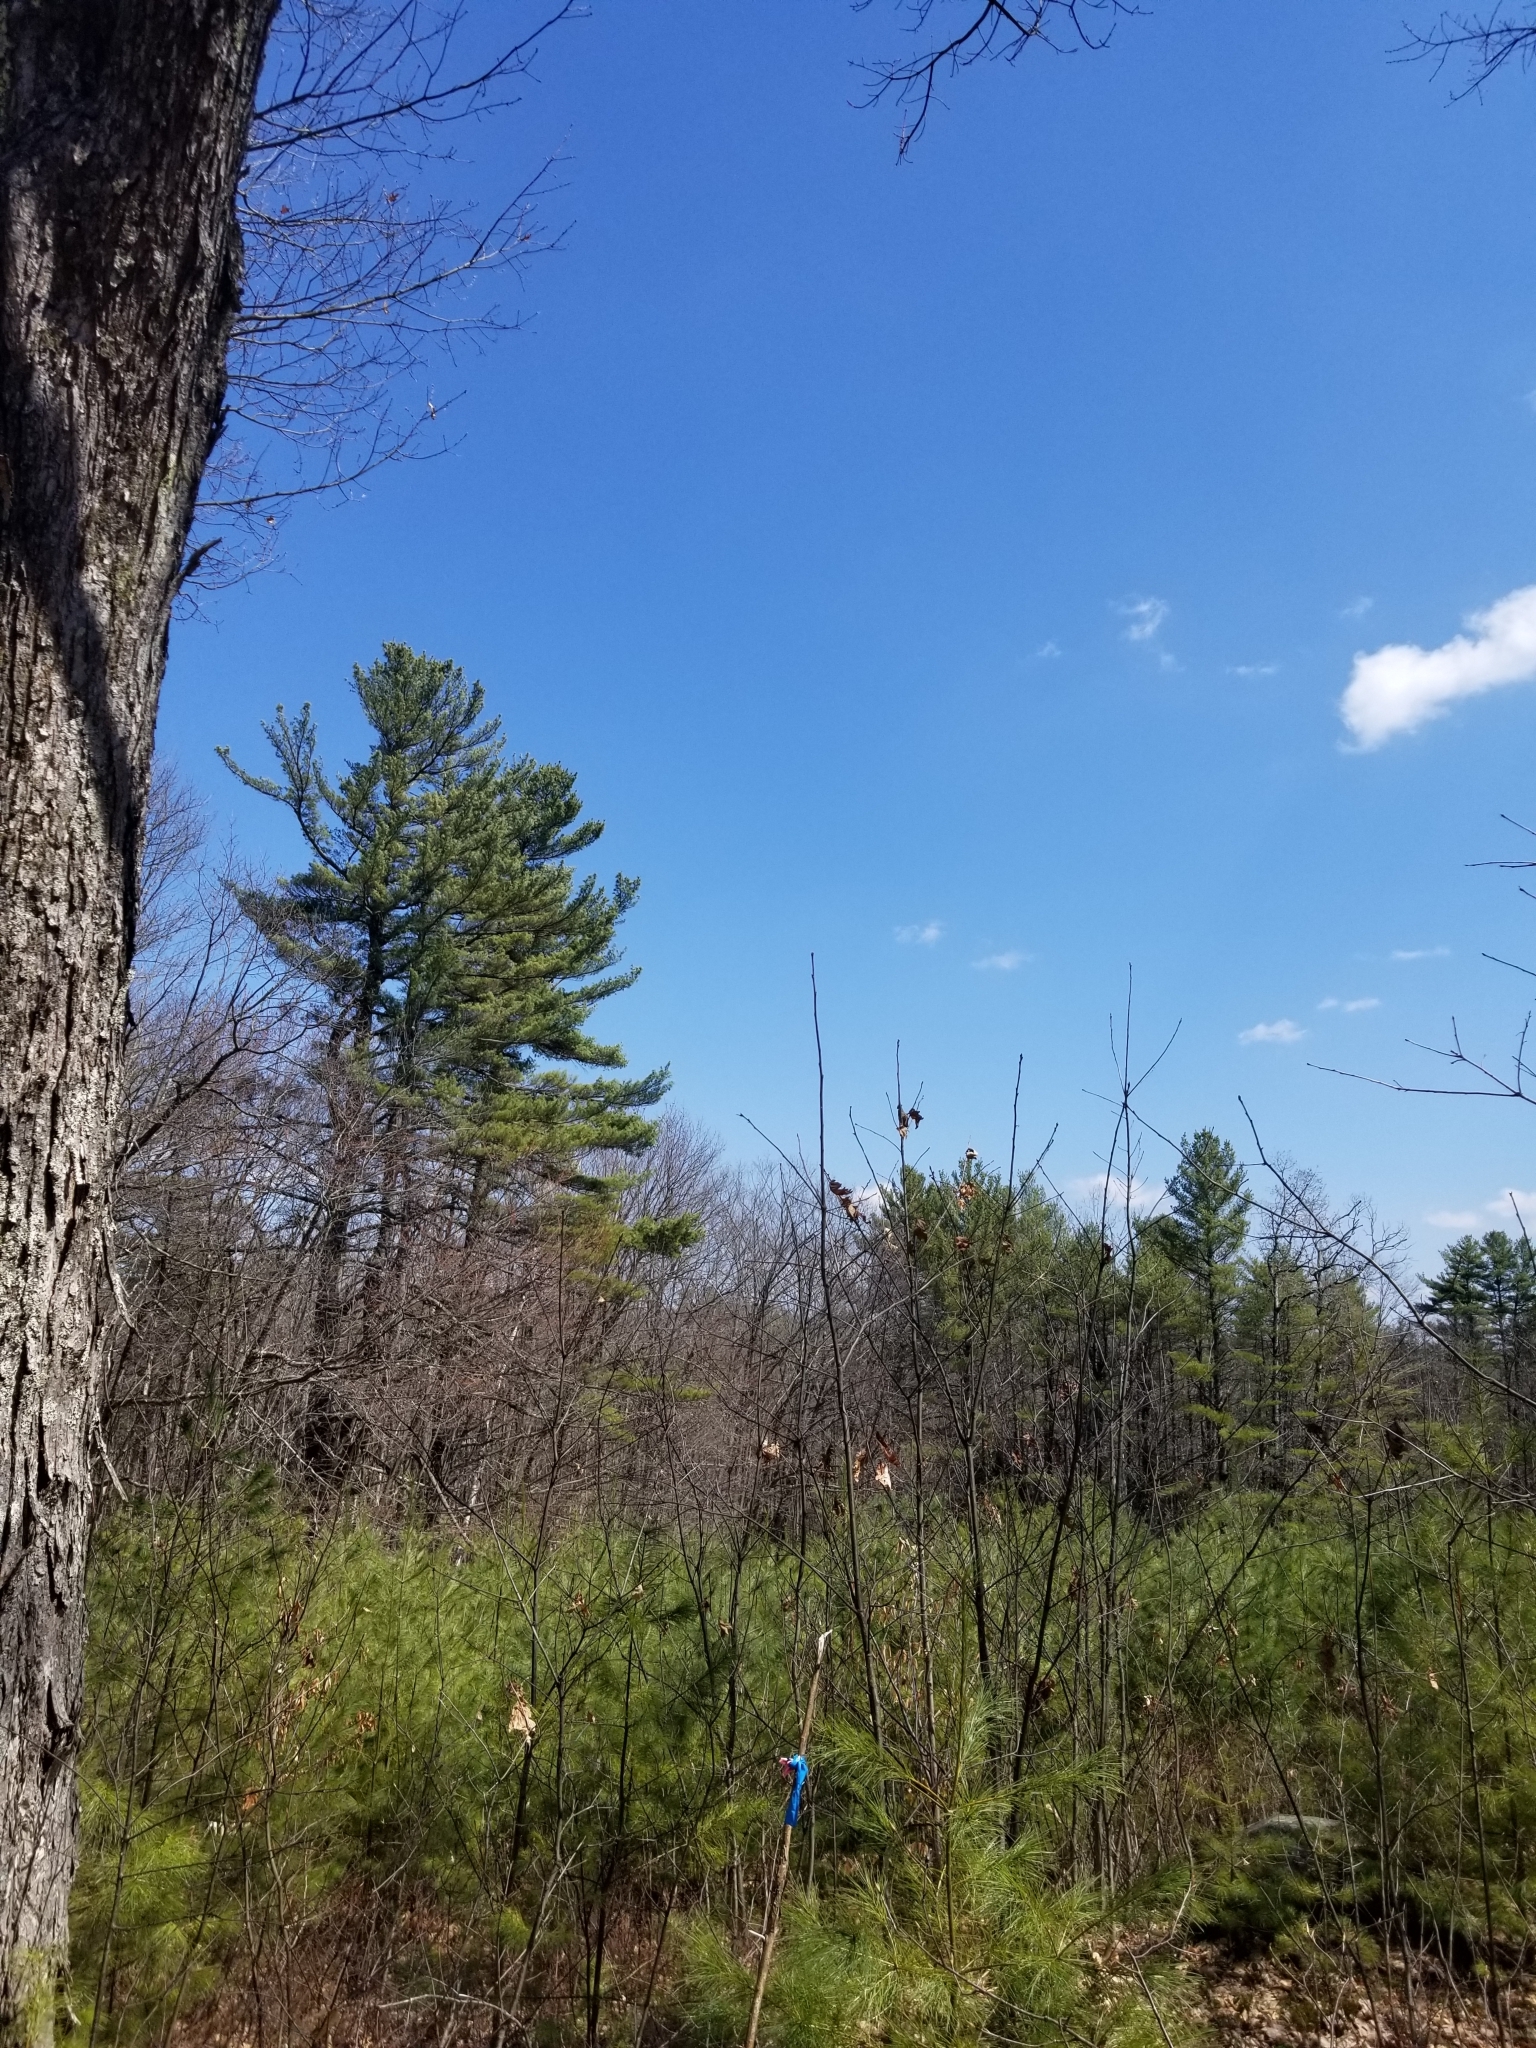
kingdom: Plantae
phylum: Tracheophyta
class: Pinopsida
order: Pinales
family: Pinaceae
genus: Pinus
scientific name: Pinus strobus
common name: Weymouth pine
